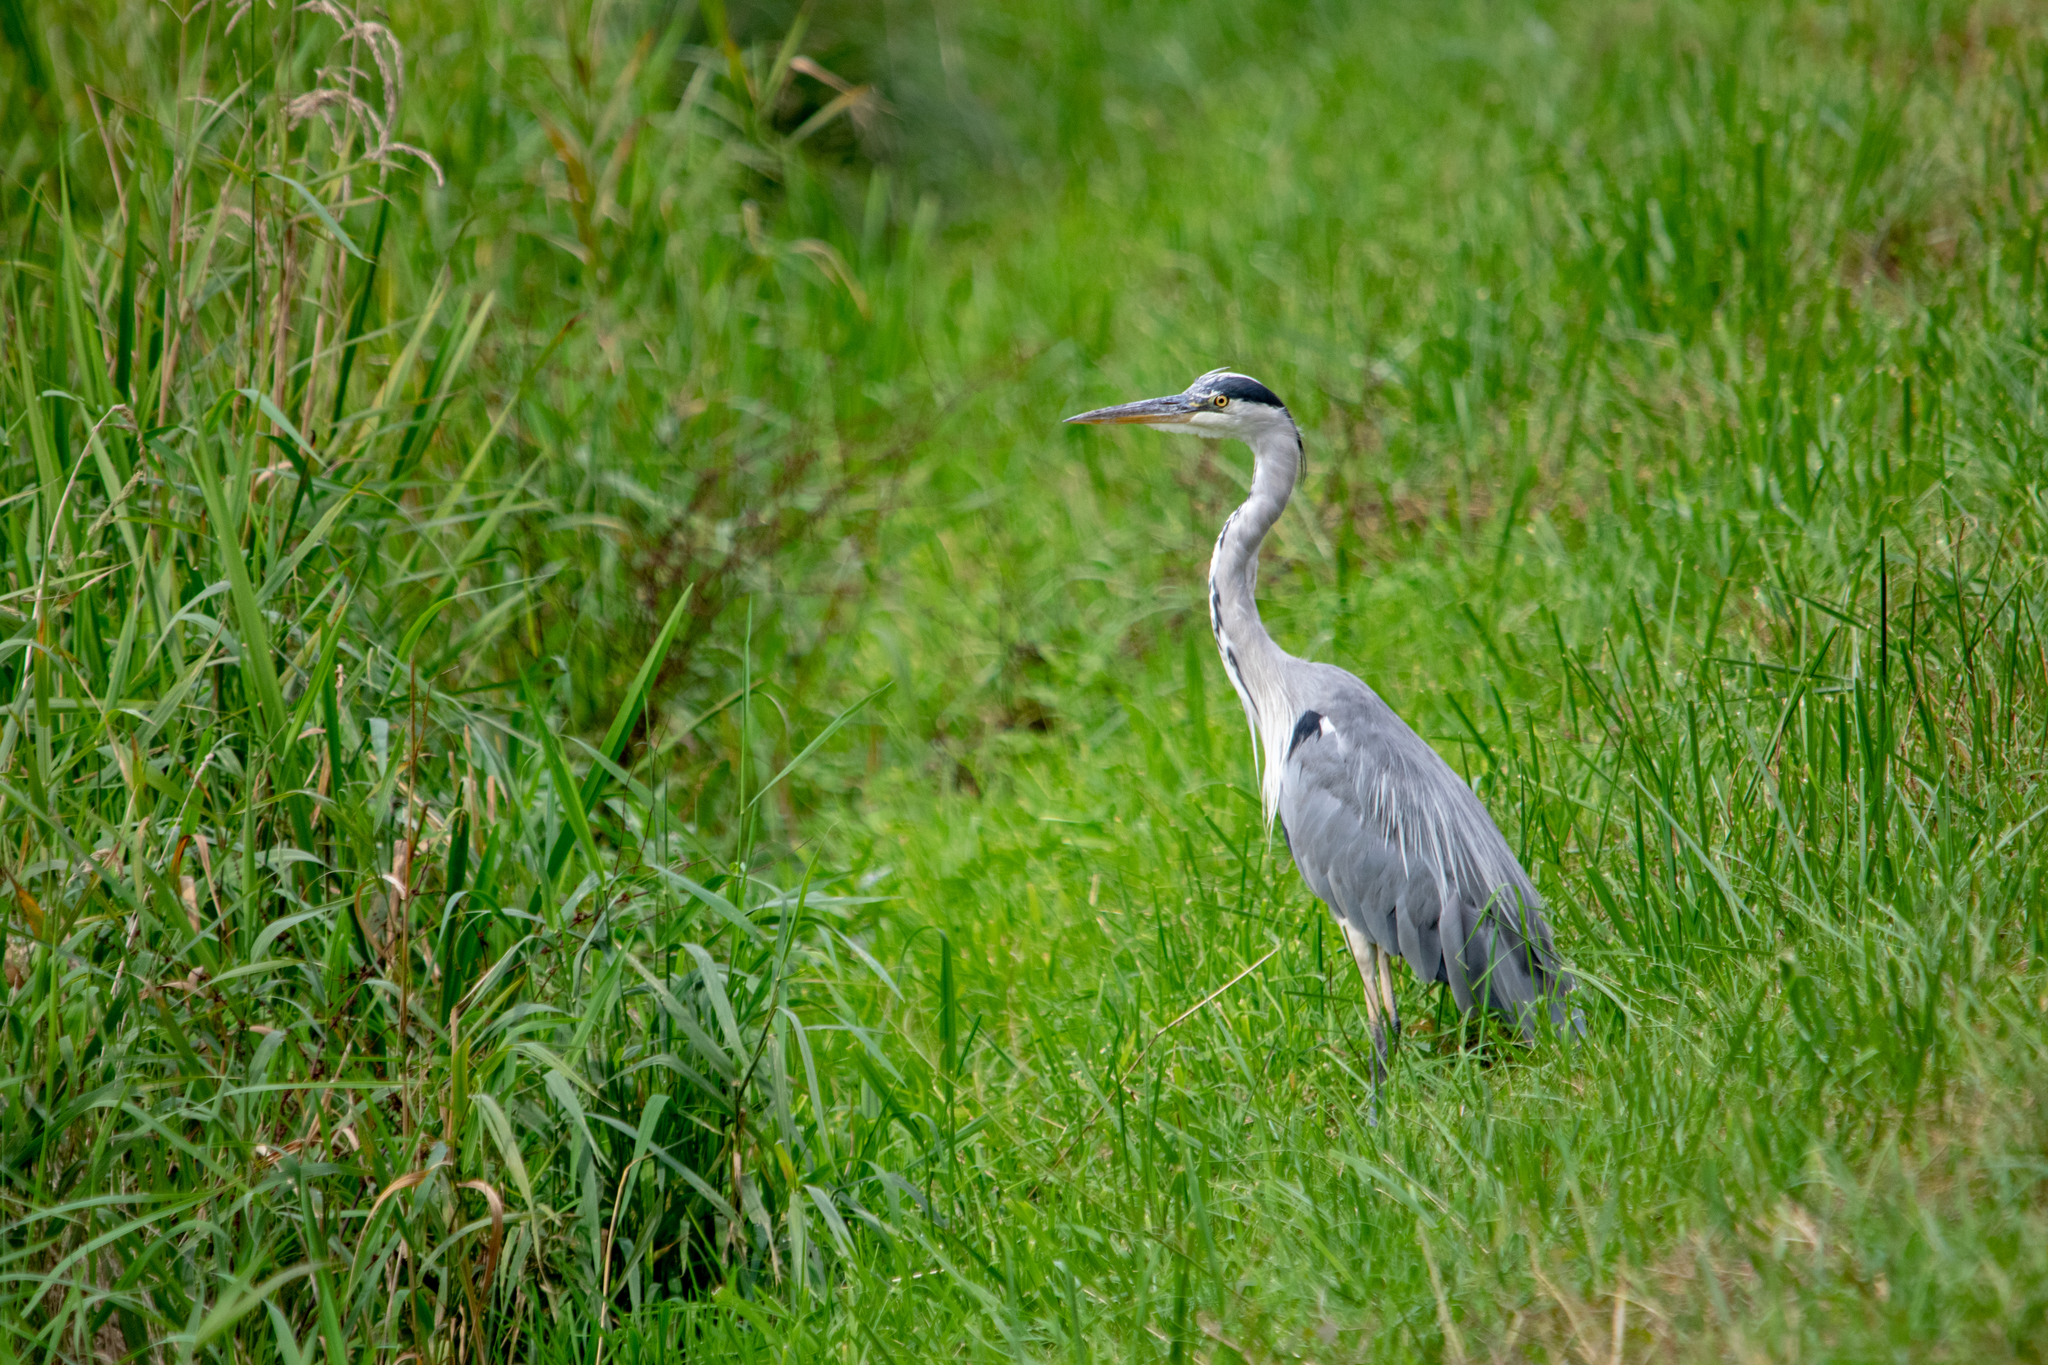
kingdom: Animalia
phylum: Chordata
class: Aves
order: Pelecaniformes
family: Ardeidae
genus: Ardea
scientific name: Ardea cinerea
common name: Grey heron
